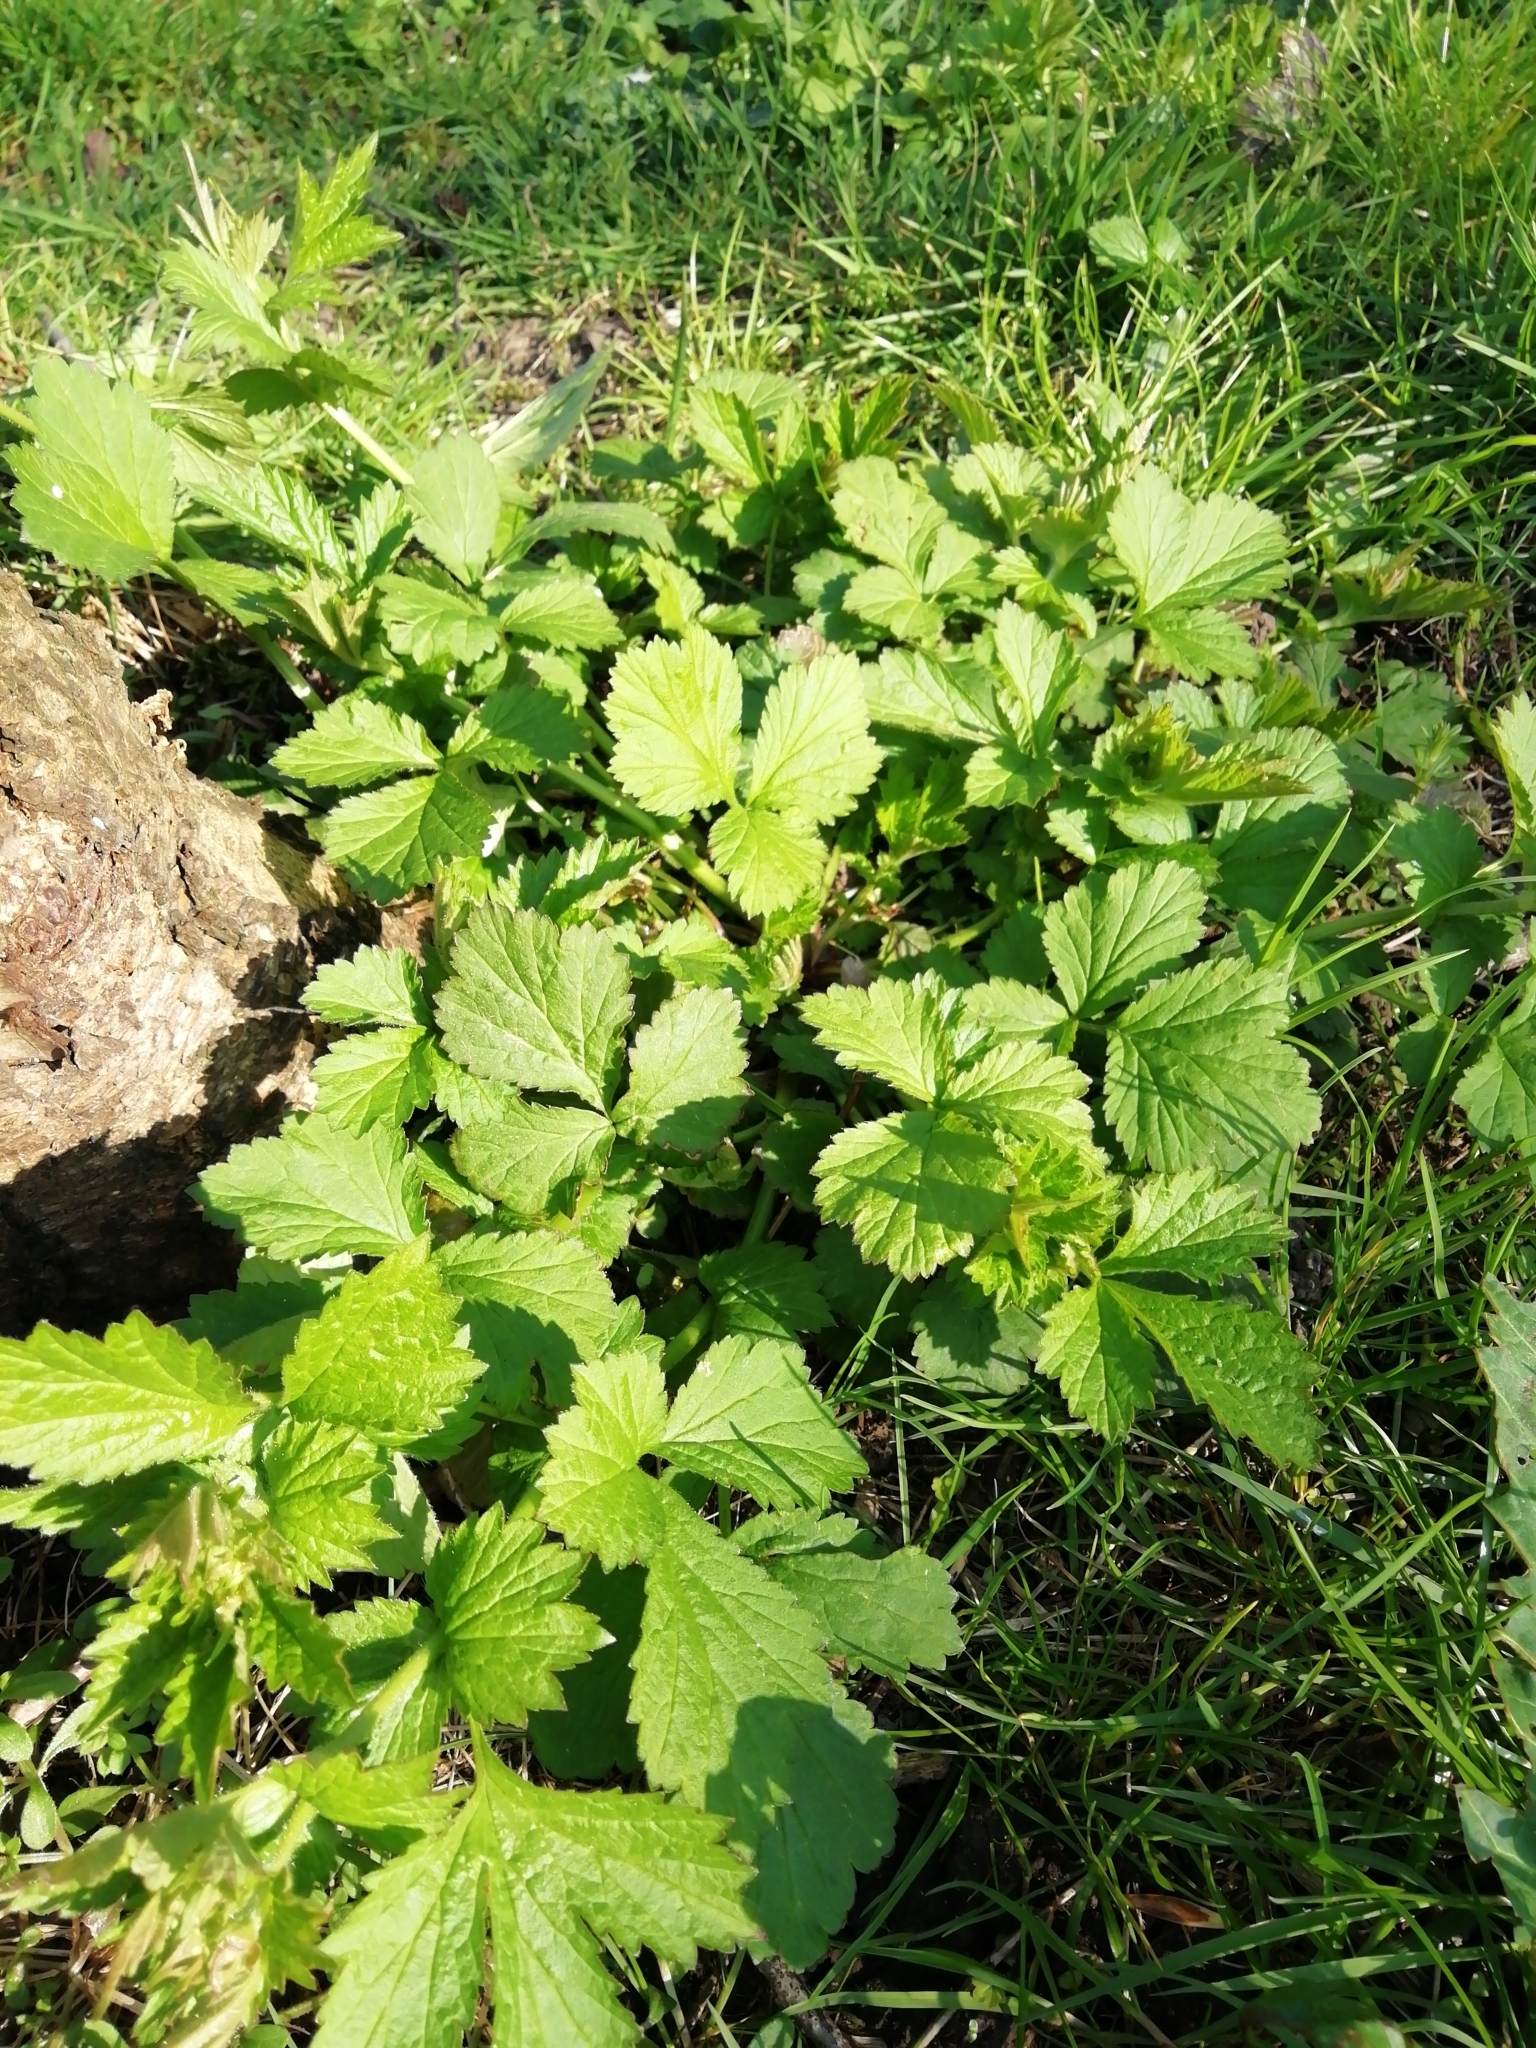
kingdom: Plantae
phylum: Tracheophyta
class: Magnoliopsida
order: Rosales
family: Rosaceae
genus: Geum
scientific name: Geum urbanum
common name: Wood avens
